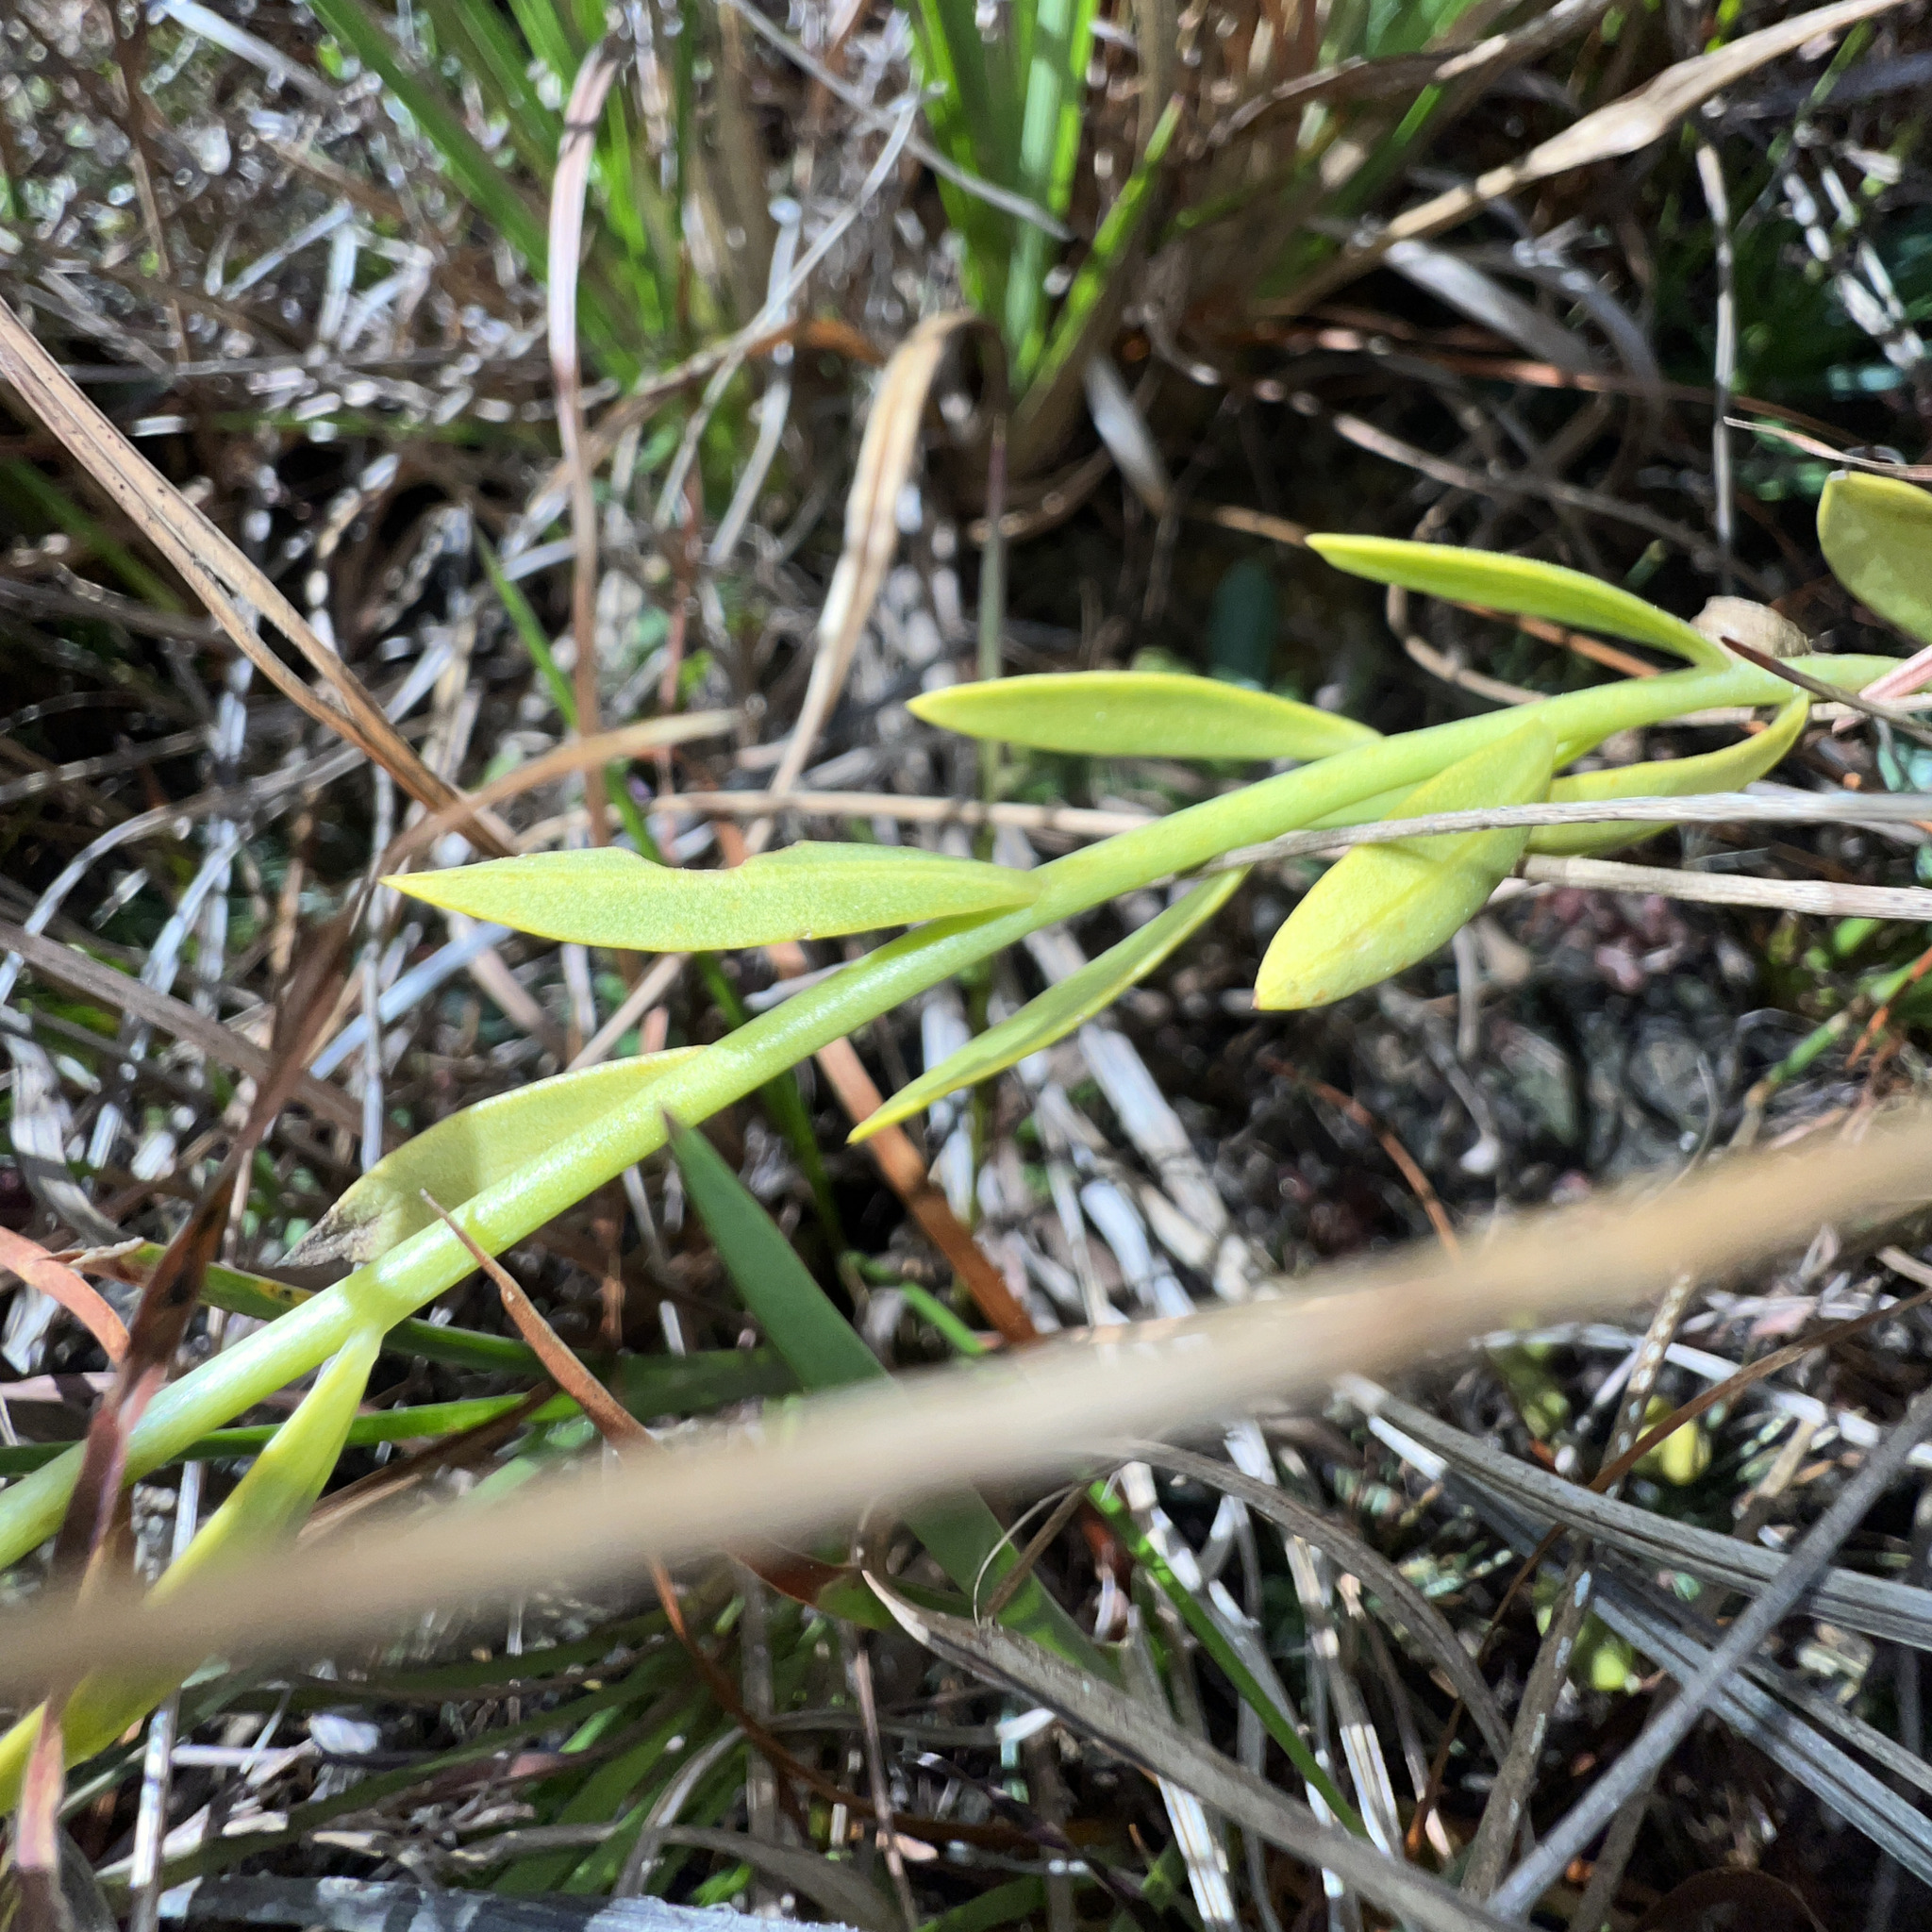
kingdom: Plantae
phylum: Tracheophyta
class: Magnoliopsida
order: Fabales
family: Polygalaceae
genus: Polygala
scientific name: Polygala rugelii
